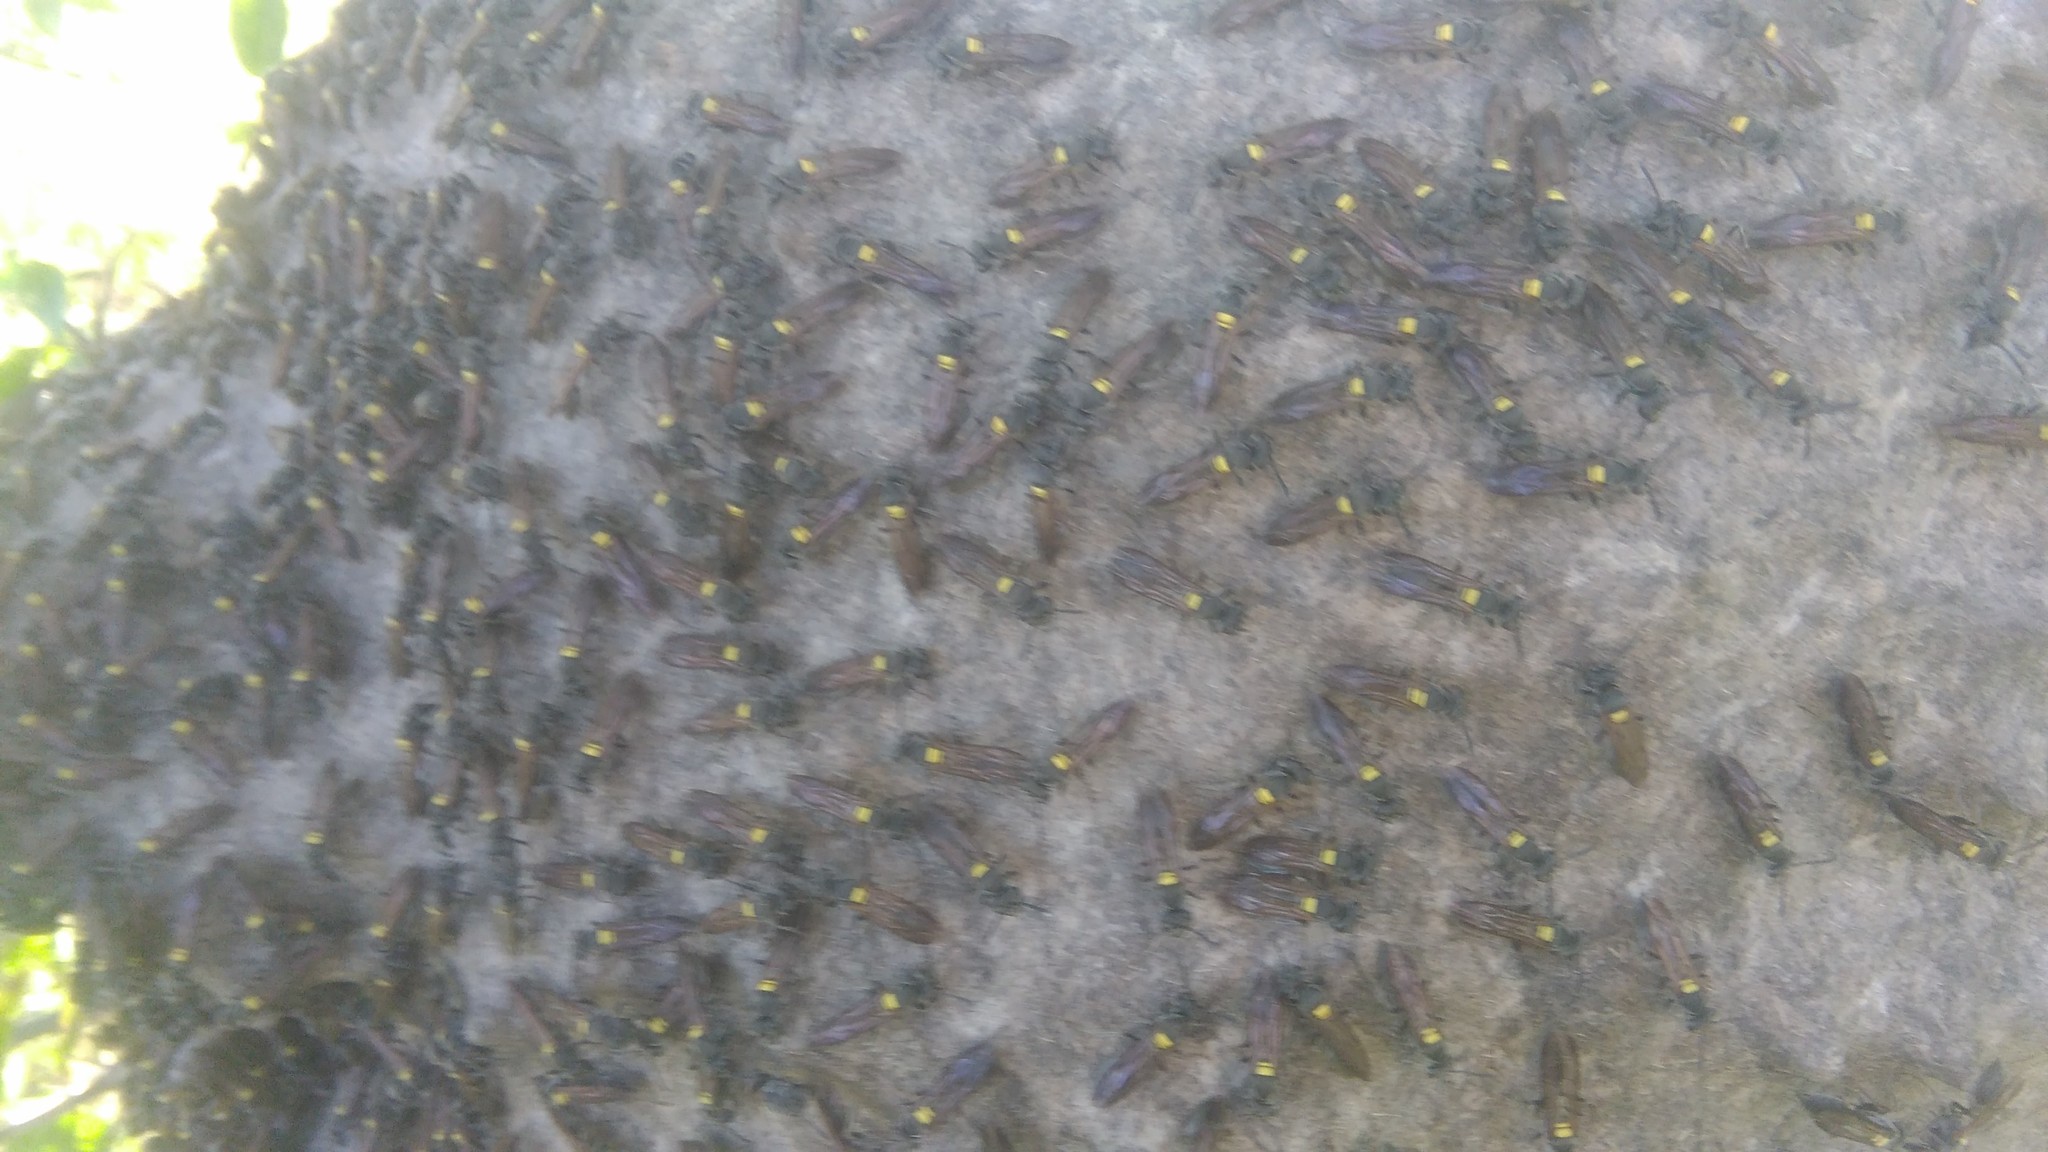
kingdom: Animalia
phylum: Arthropoda
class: Insecta
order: Hymenoptera
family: Eumenidae
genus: Polybia
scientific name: Polybia scutellaris
